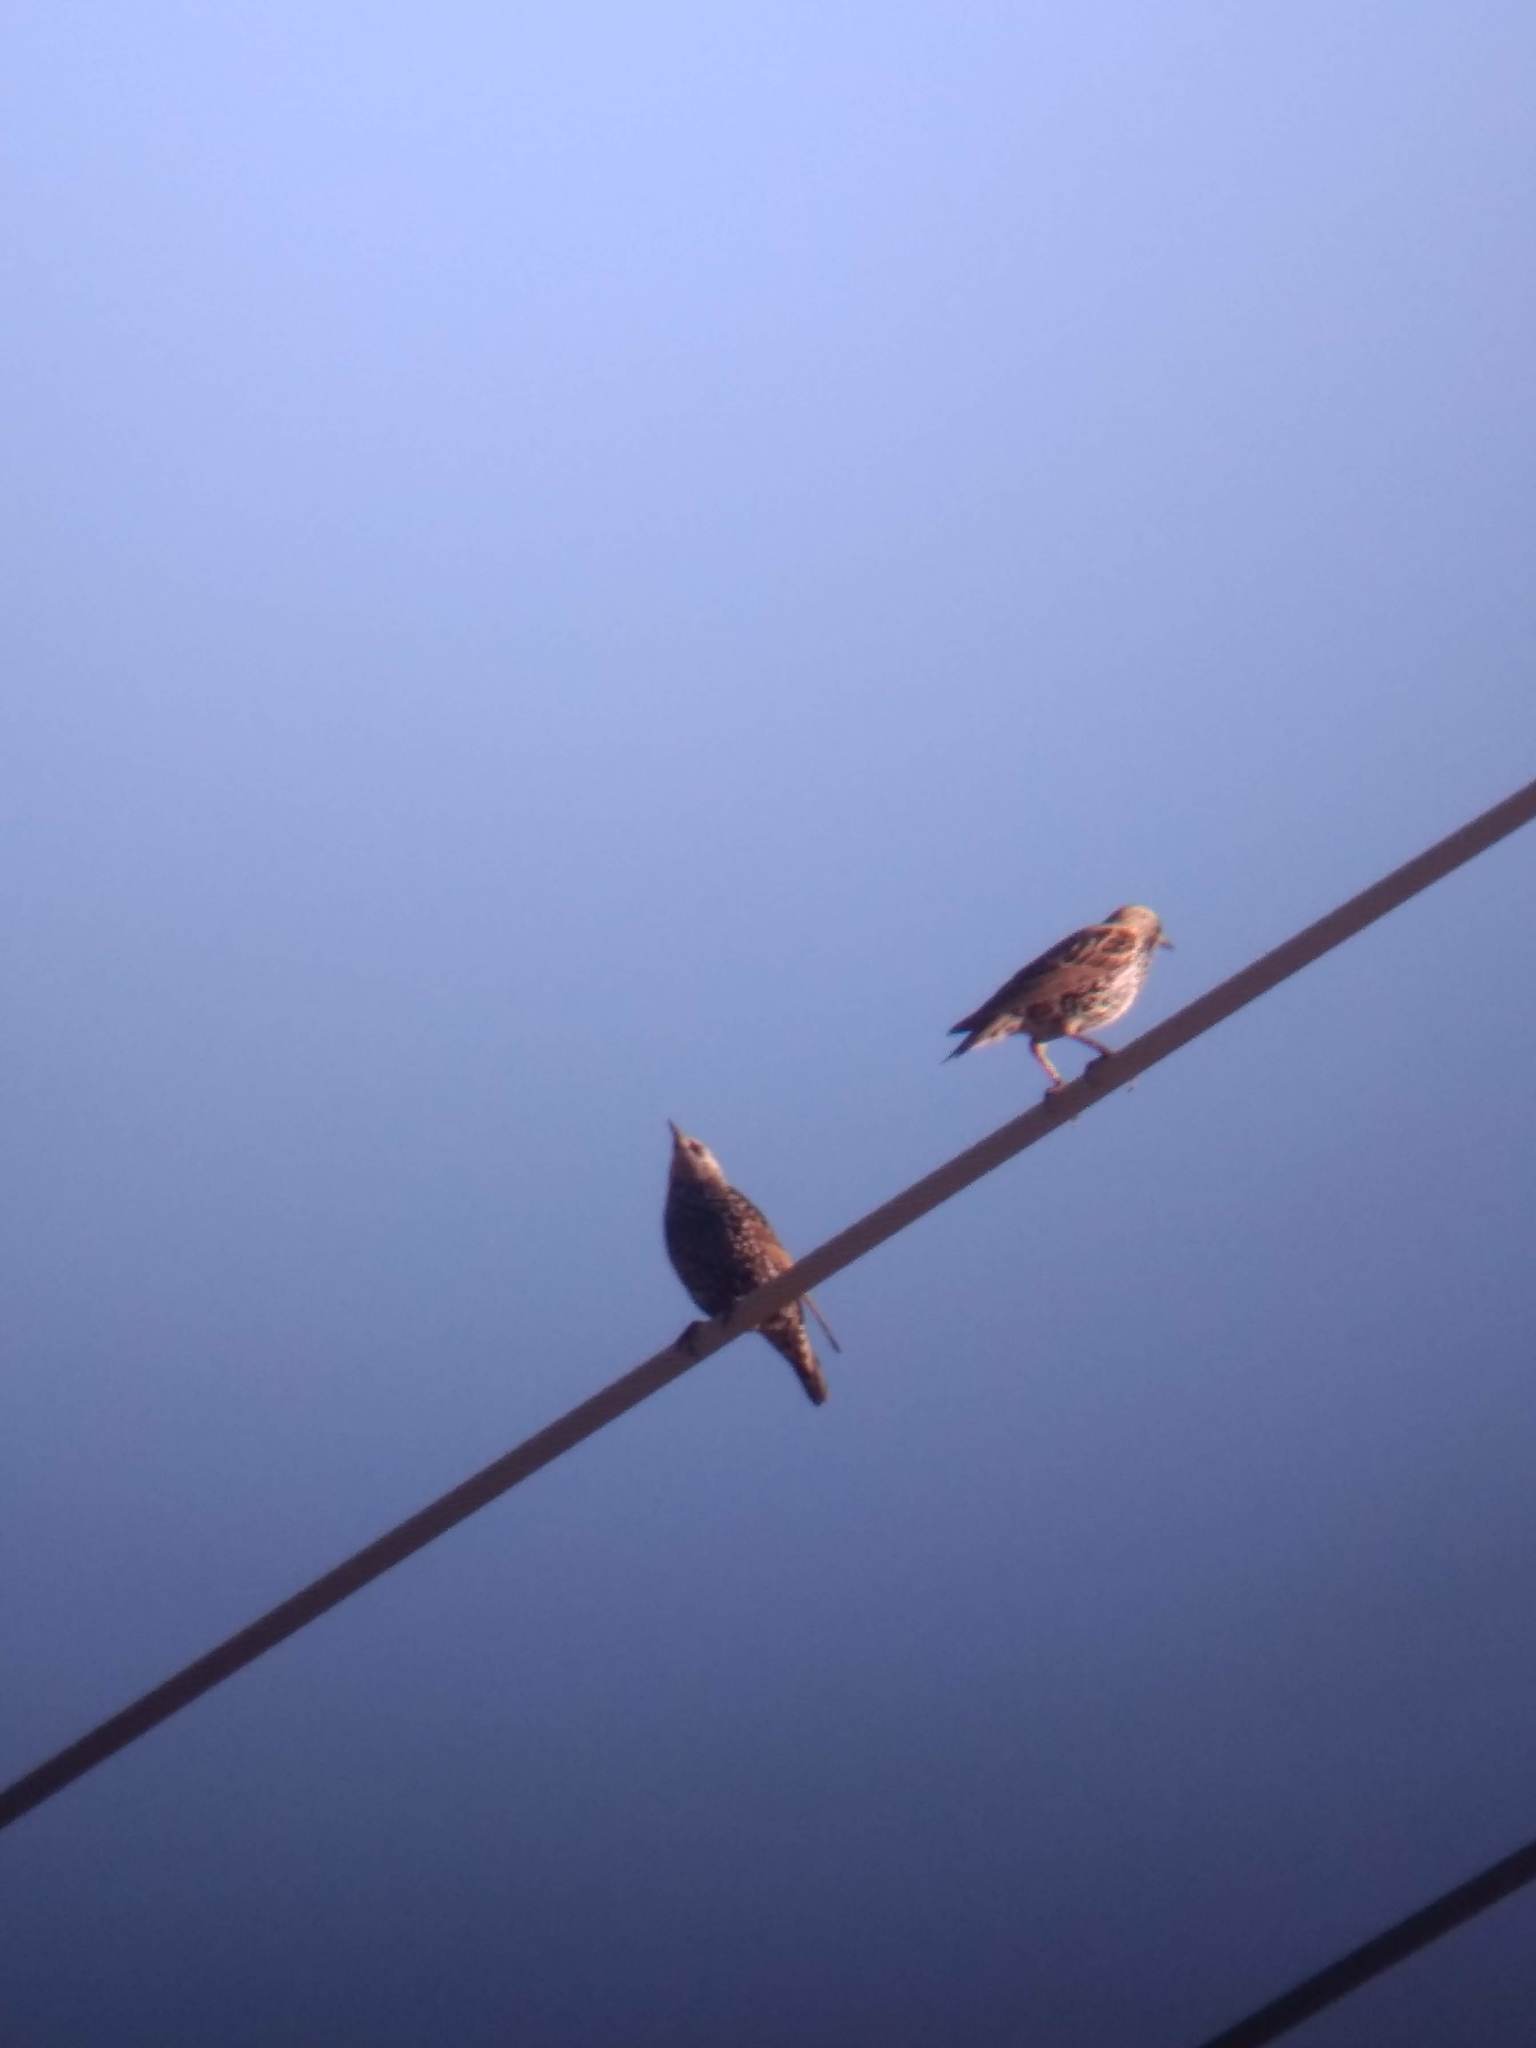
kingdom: Animalia
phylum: Chordata
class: Aves
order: Passeriformes
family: Sturnidae
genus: Sturnus
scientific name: Sturnus vulgaris
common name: Common starling
